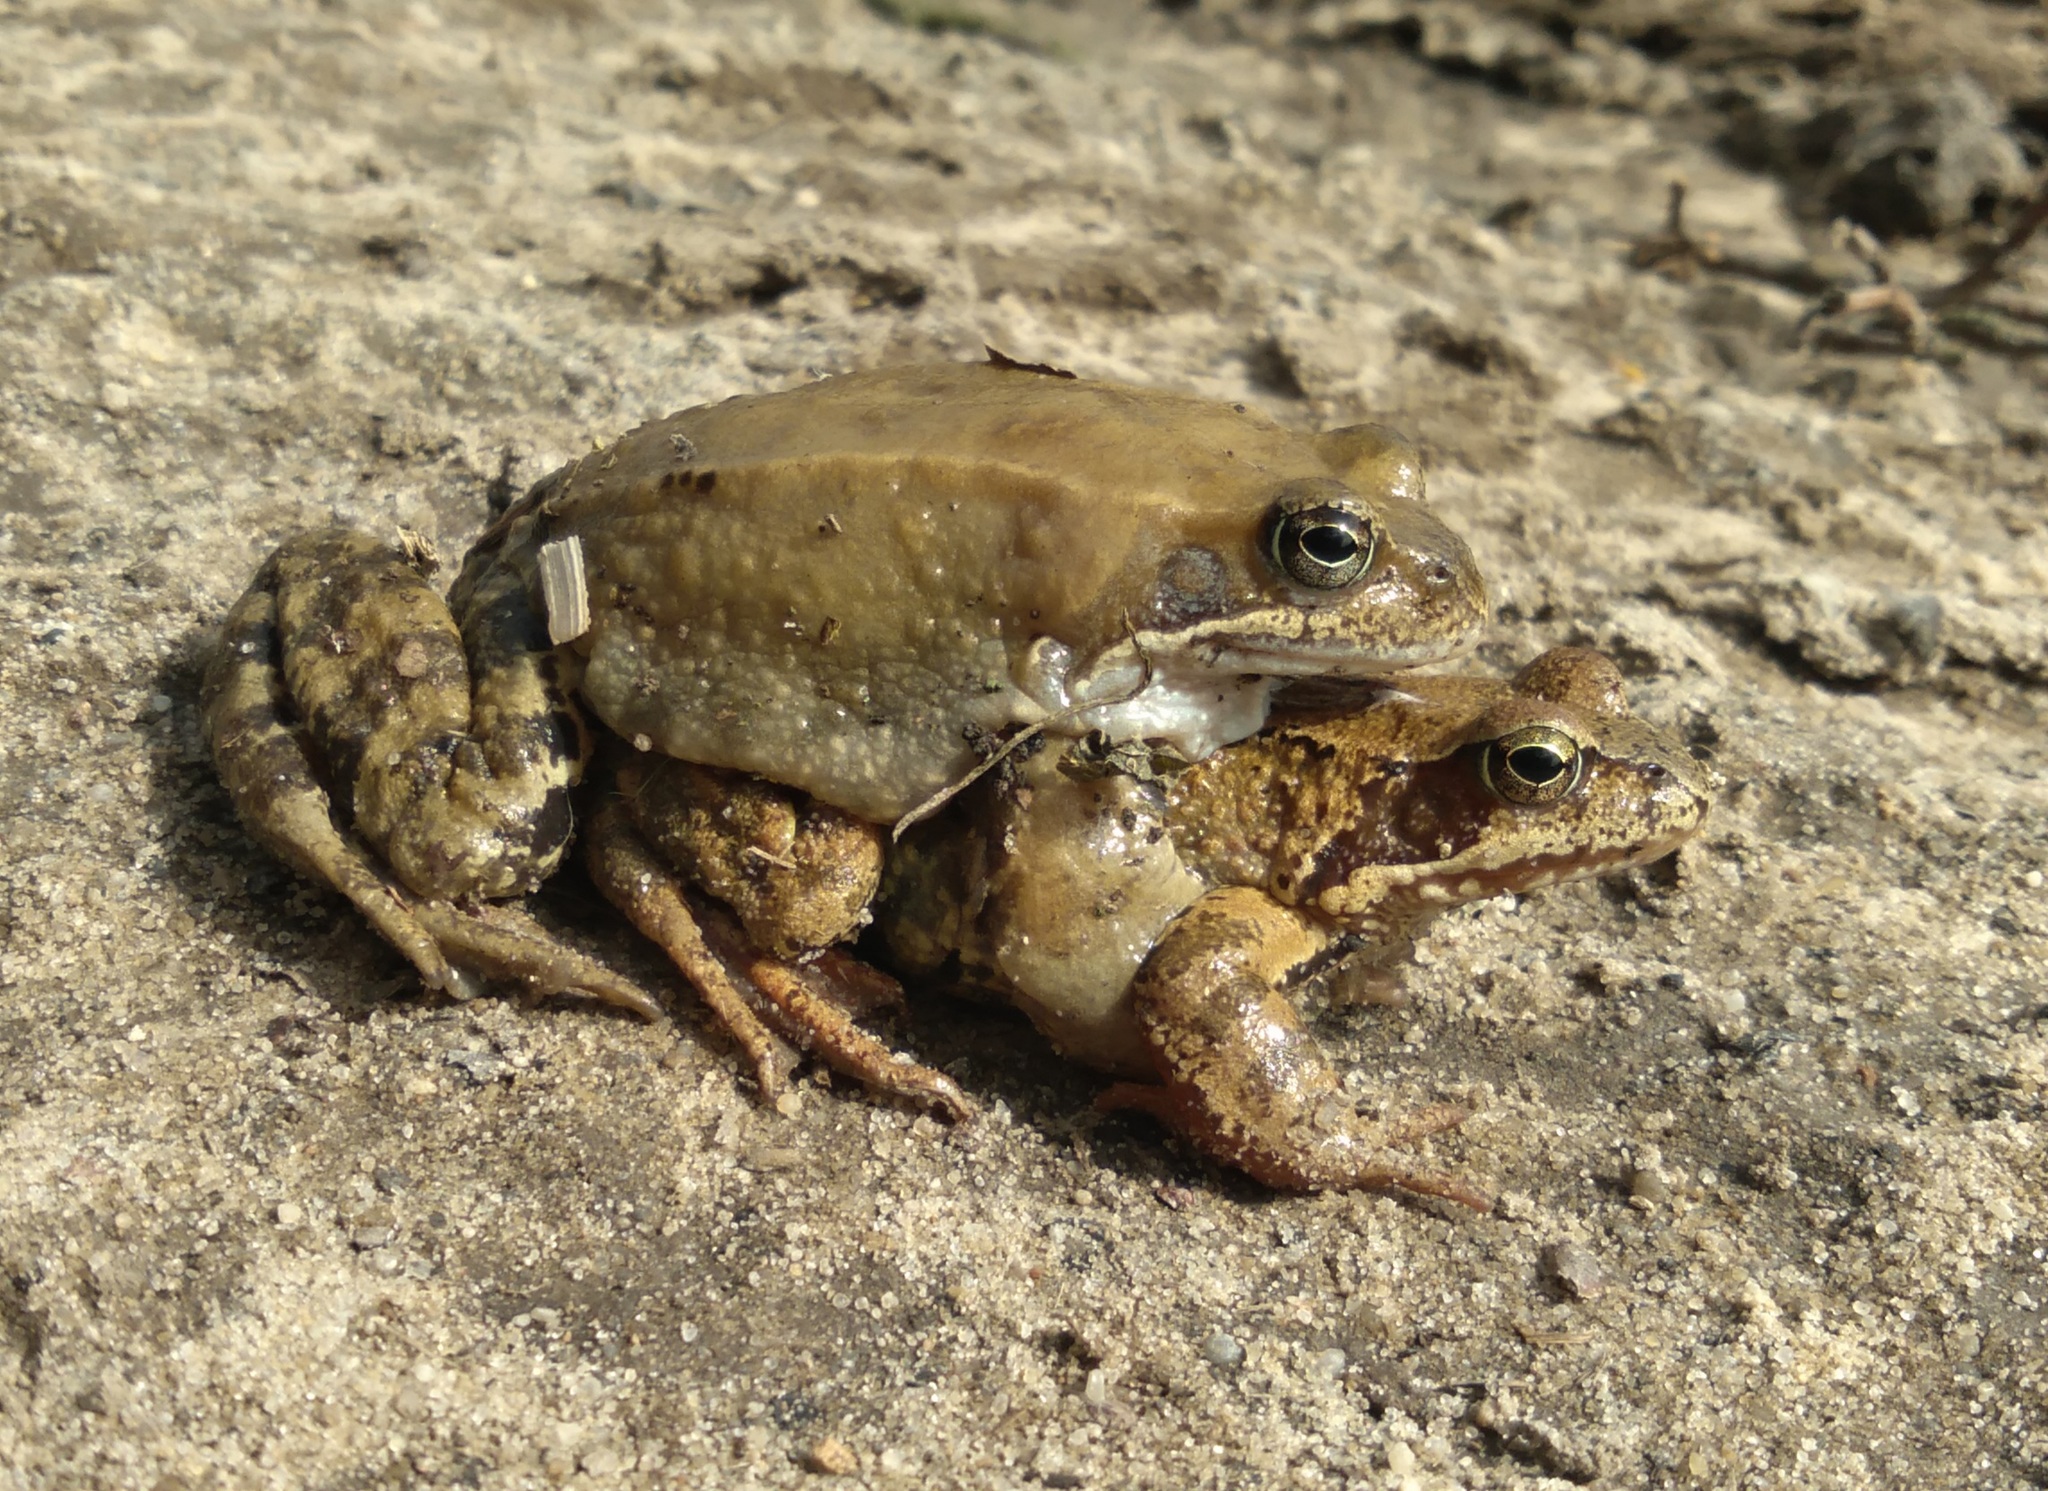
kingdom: Animalia
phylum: Chordata
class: Amphibia
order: Anura
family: Ranidae
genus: Rana
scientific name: Rana temporaria
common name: Common frog
